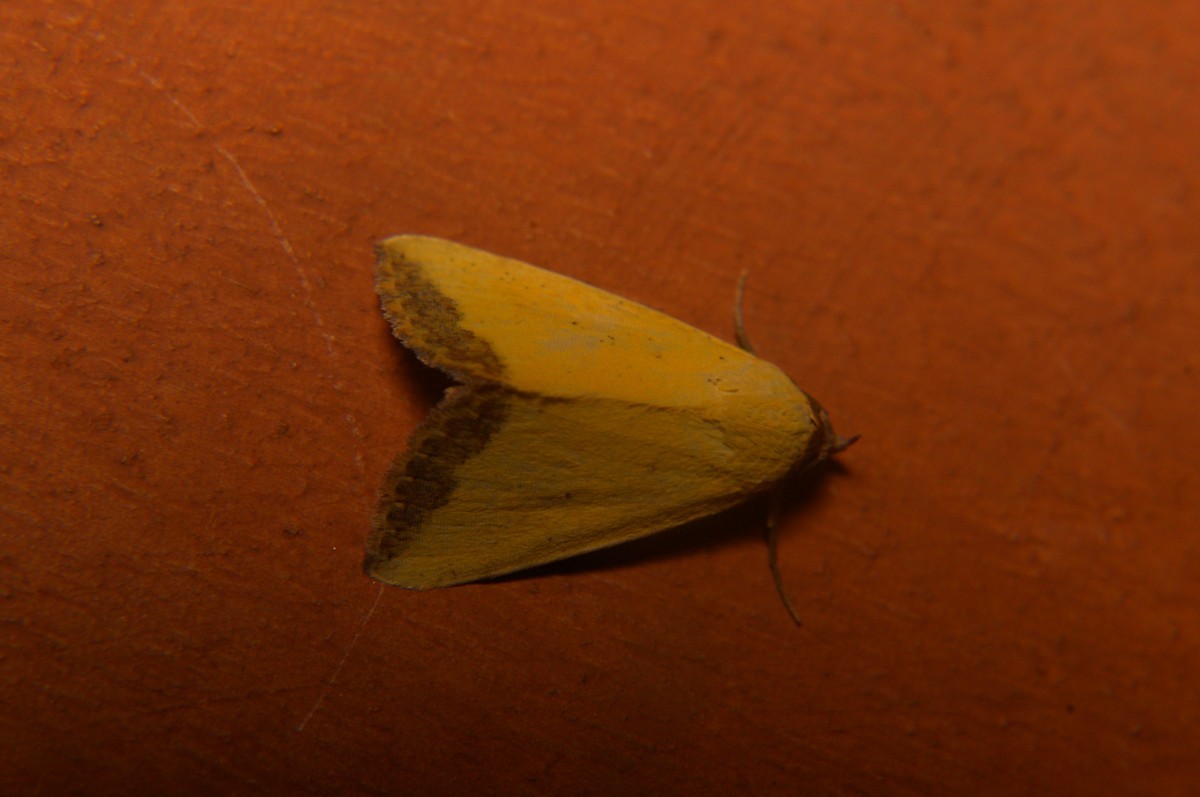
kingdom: Animalia
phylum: Arthropoda
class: Insecta
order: Lepidoptera
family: Noctuidae
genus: Eustrotia
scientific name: Eustrotia marginata
